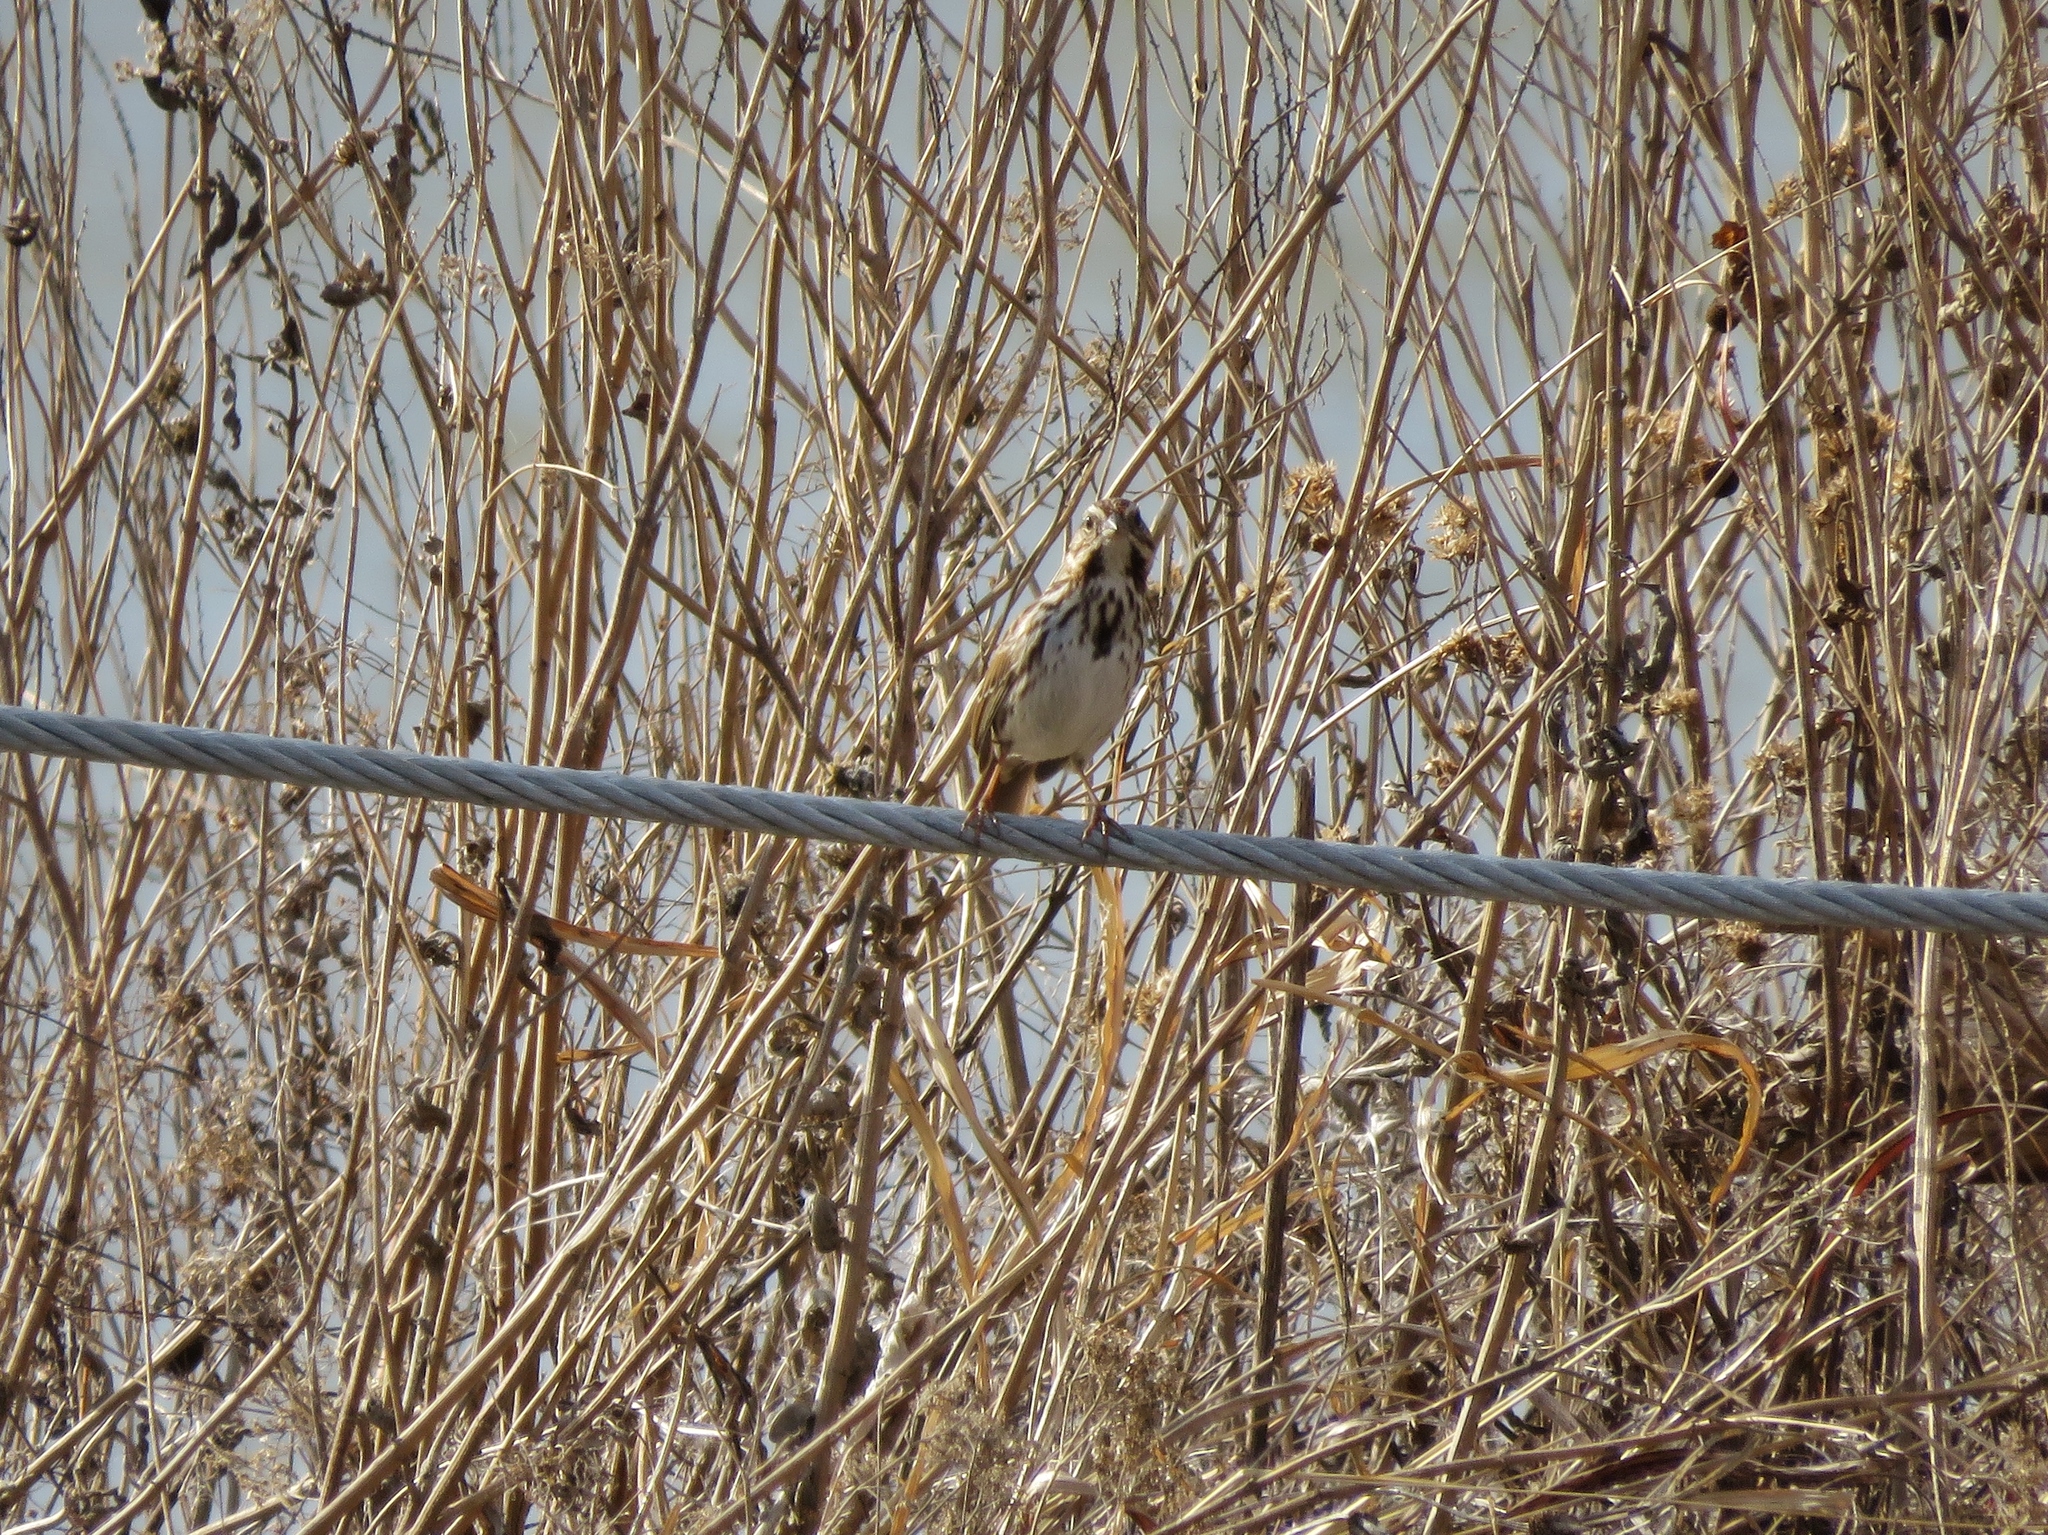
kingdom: Animalia
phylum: Chordata
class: Aves
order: Passeriformes
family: Passerellidae
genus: Melospiza
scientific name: Melospiza melodia
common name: Song sparrow
